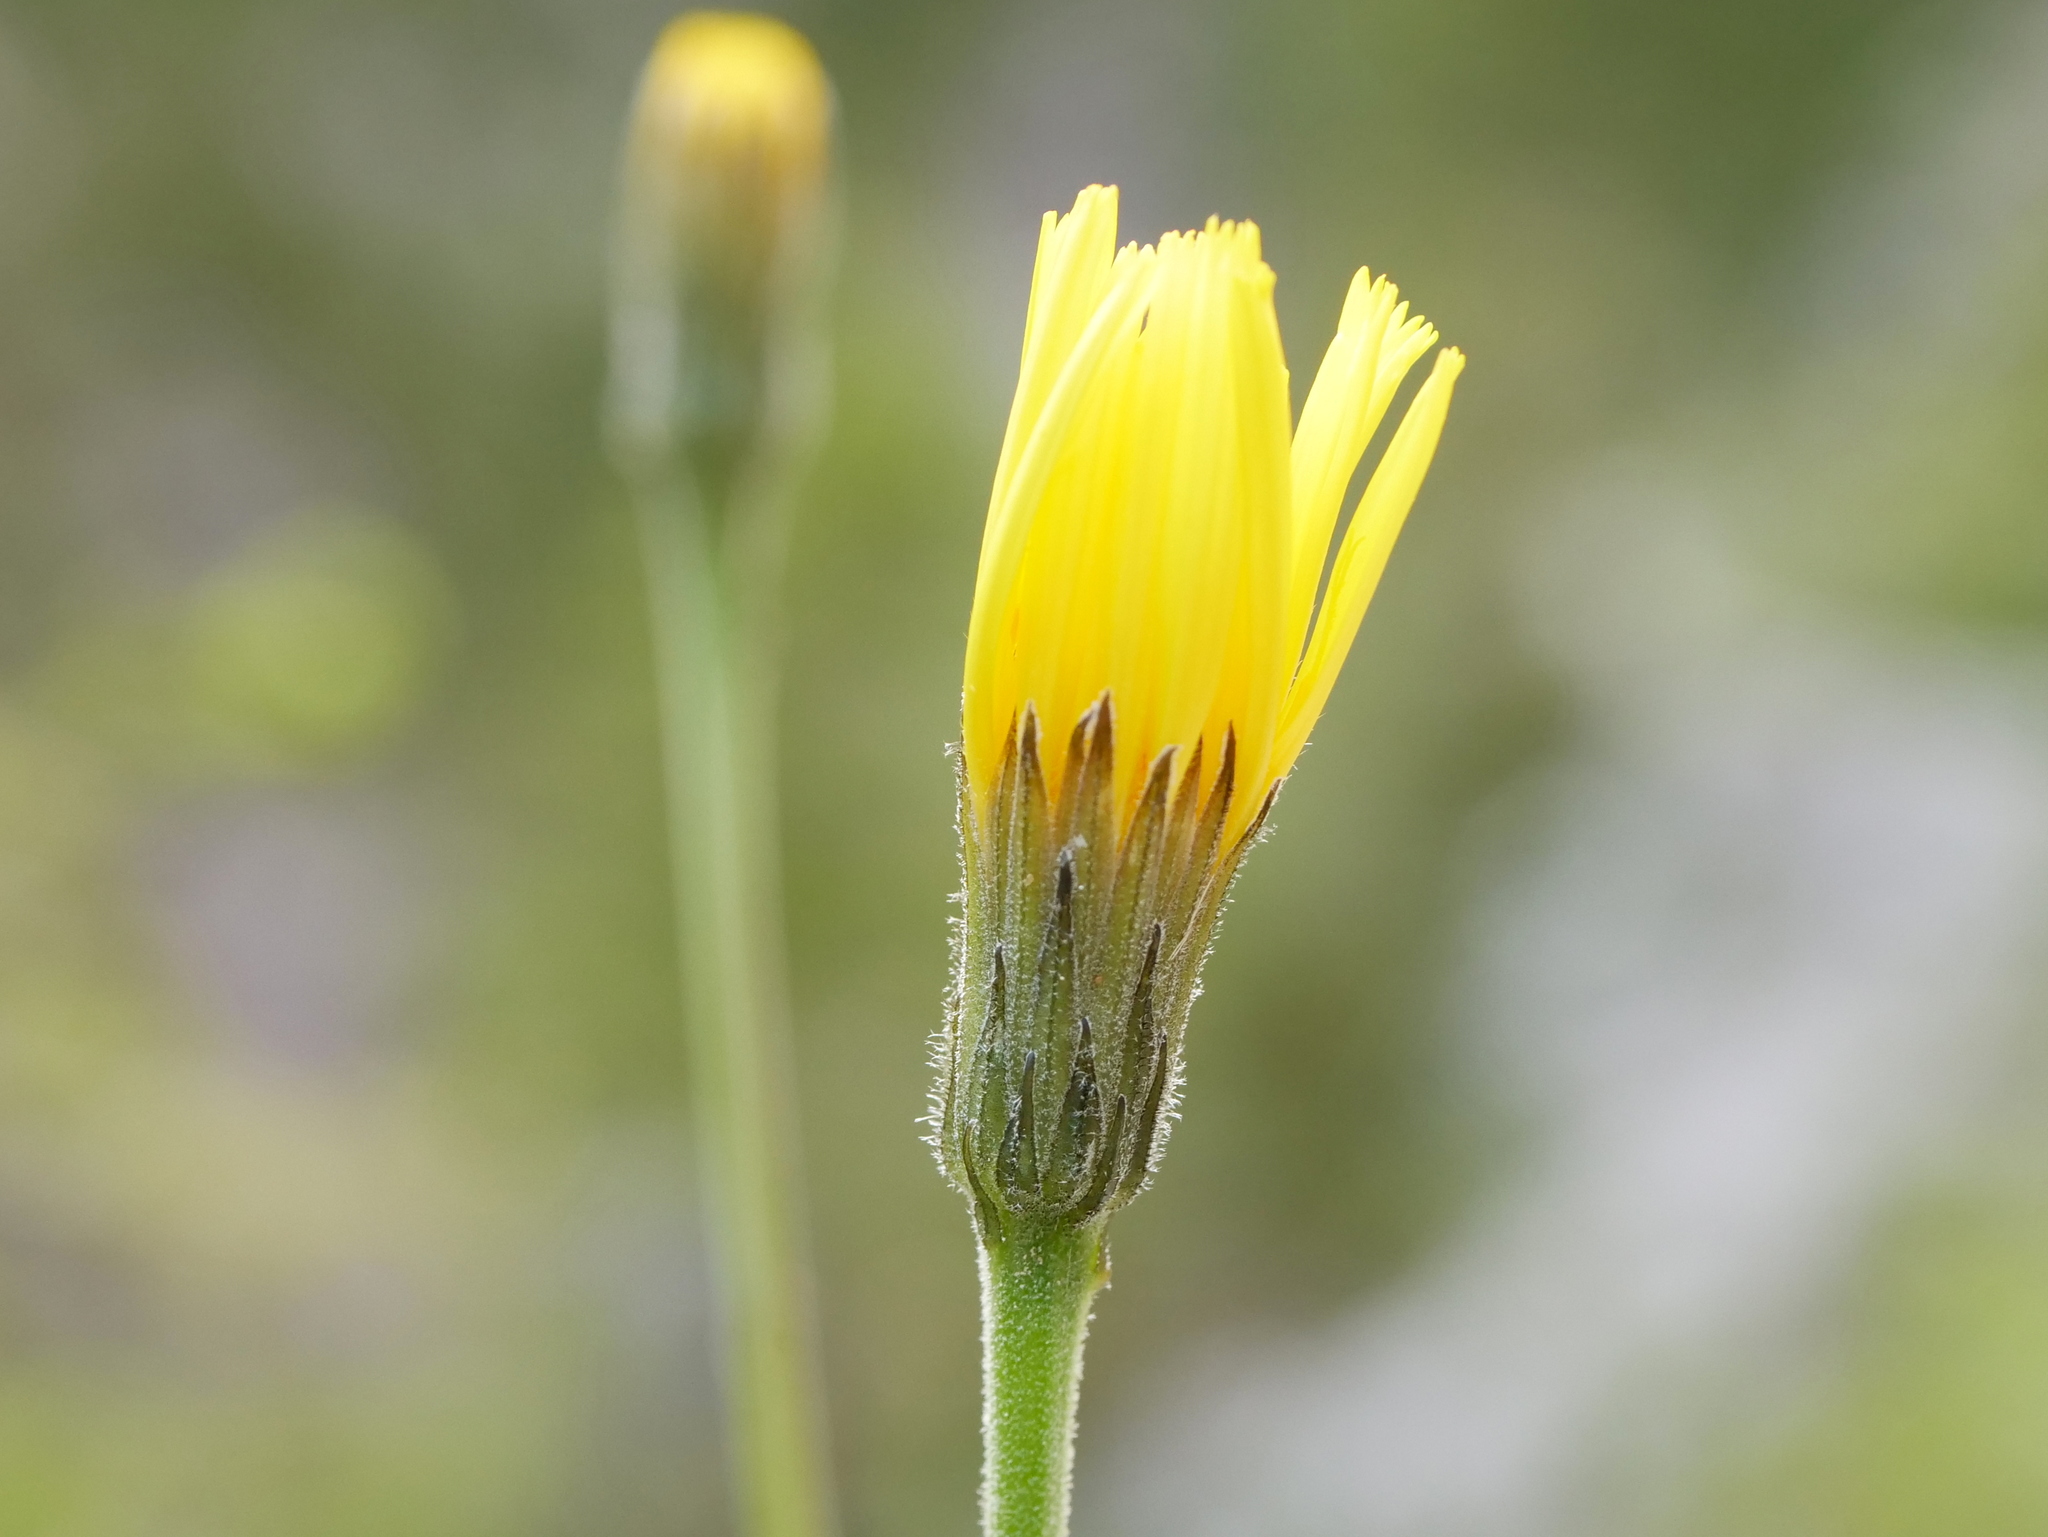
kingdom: Plantae
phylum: Tracheophyta
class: Magnoliopsida
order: Asterales
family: Asteraceae
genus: Leontodon
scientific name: Leontodon incanus
